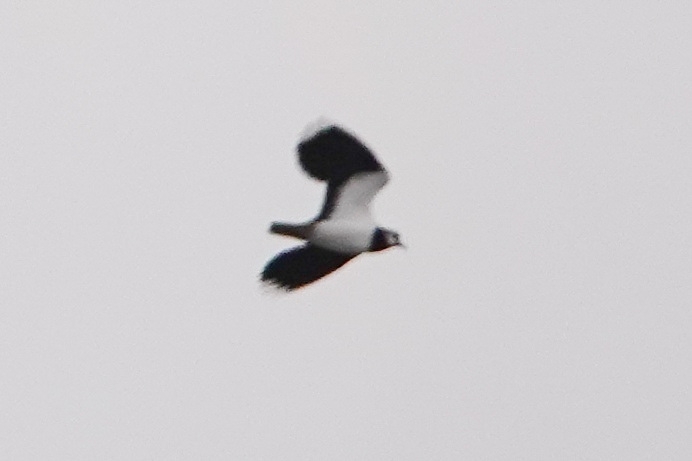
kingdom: Animalia
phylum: Chordata
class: Aves
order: Charadriiformes
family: Charadriidae
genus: Vanellus
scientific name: Vanellus vanellus
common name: Northern lapwing
